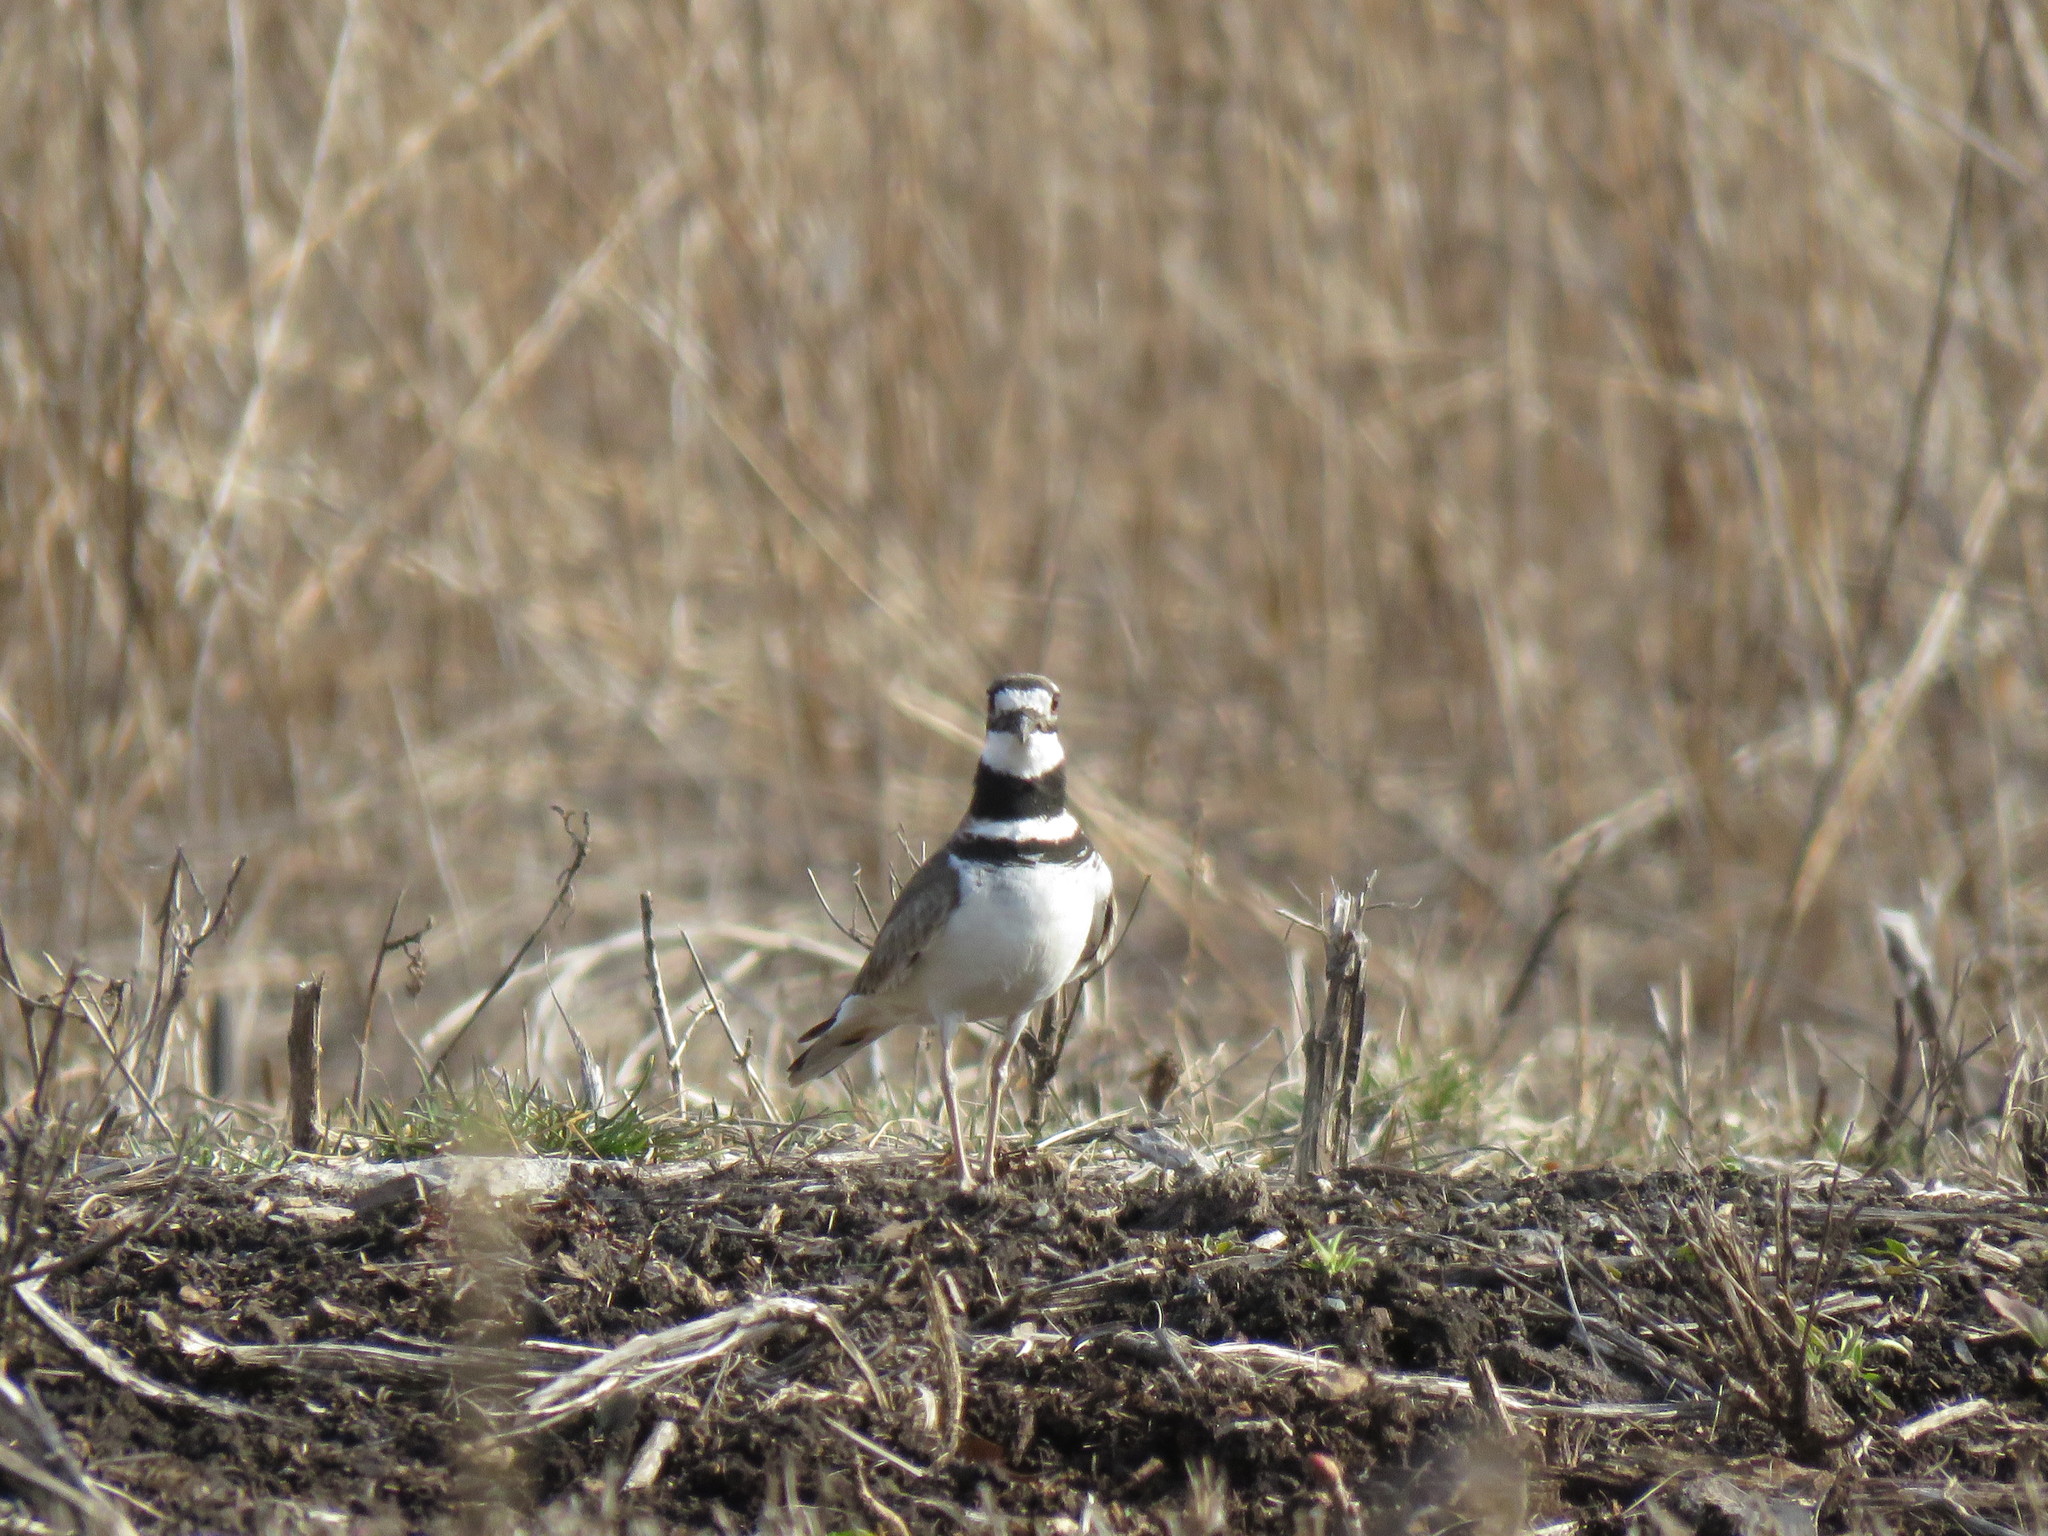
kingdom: Animalia
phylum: Chordata
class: Aves
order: Charadriiformes
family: Charadriidae
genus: Charadrius
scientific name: Charadrius vociferus
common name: Killdeer
